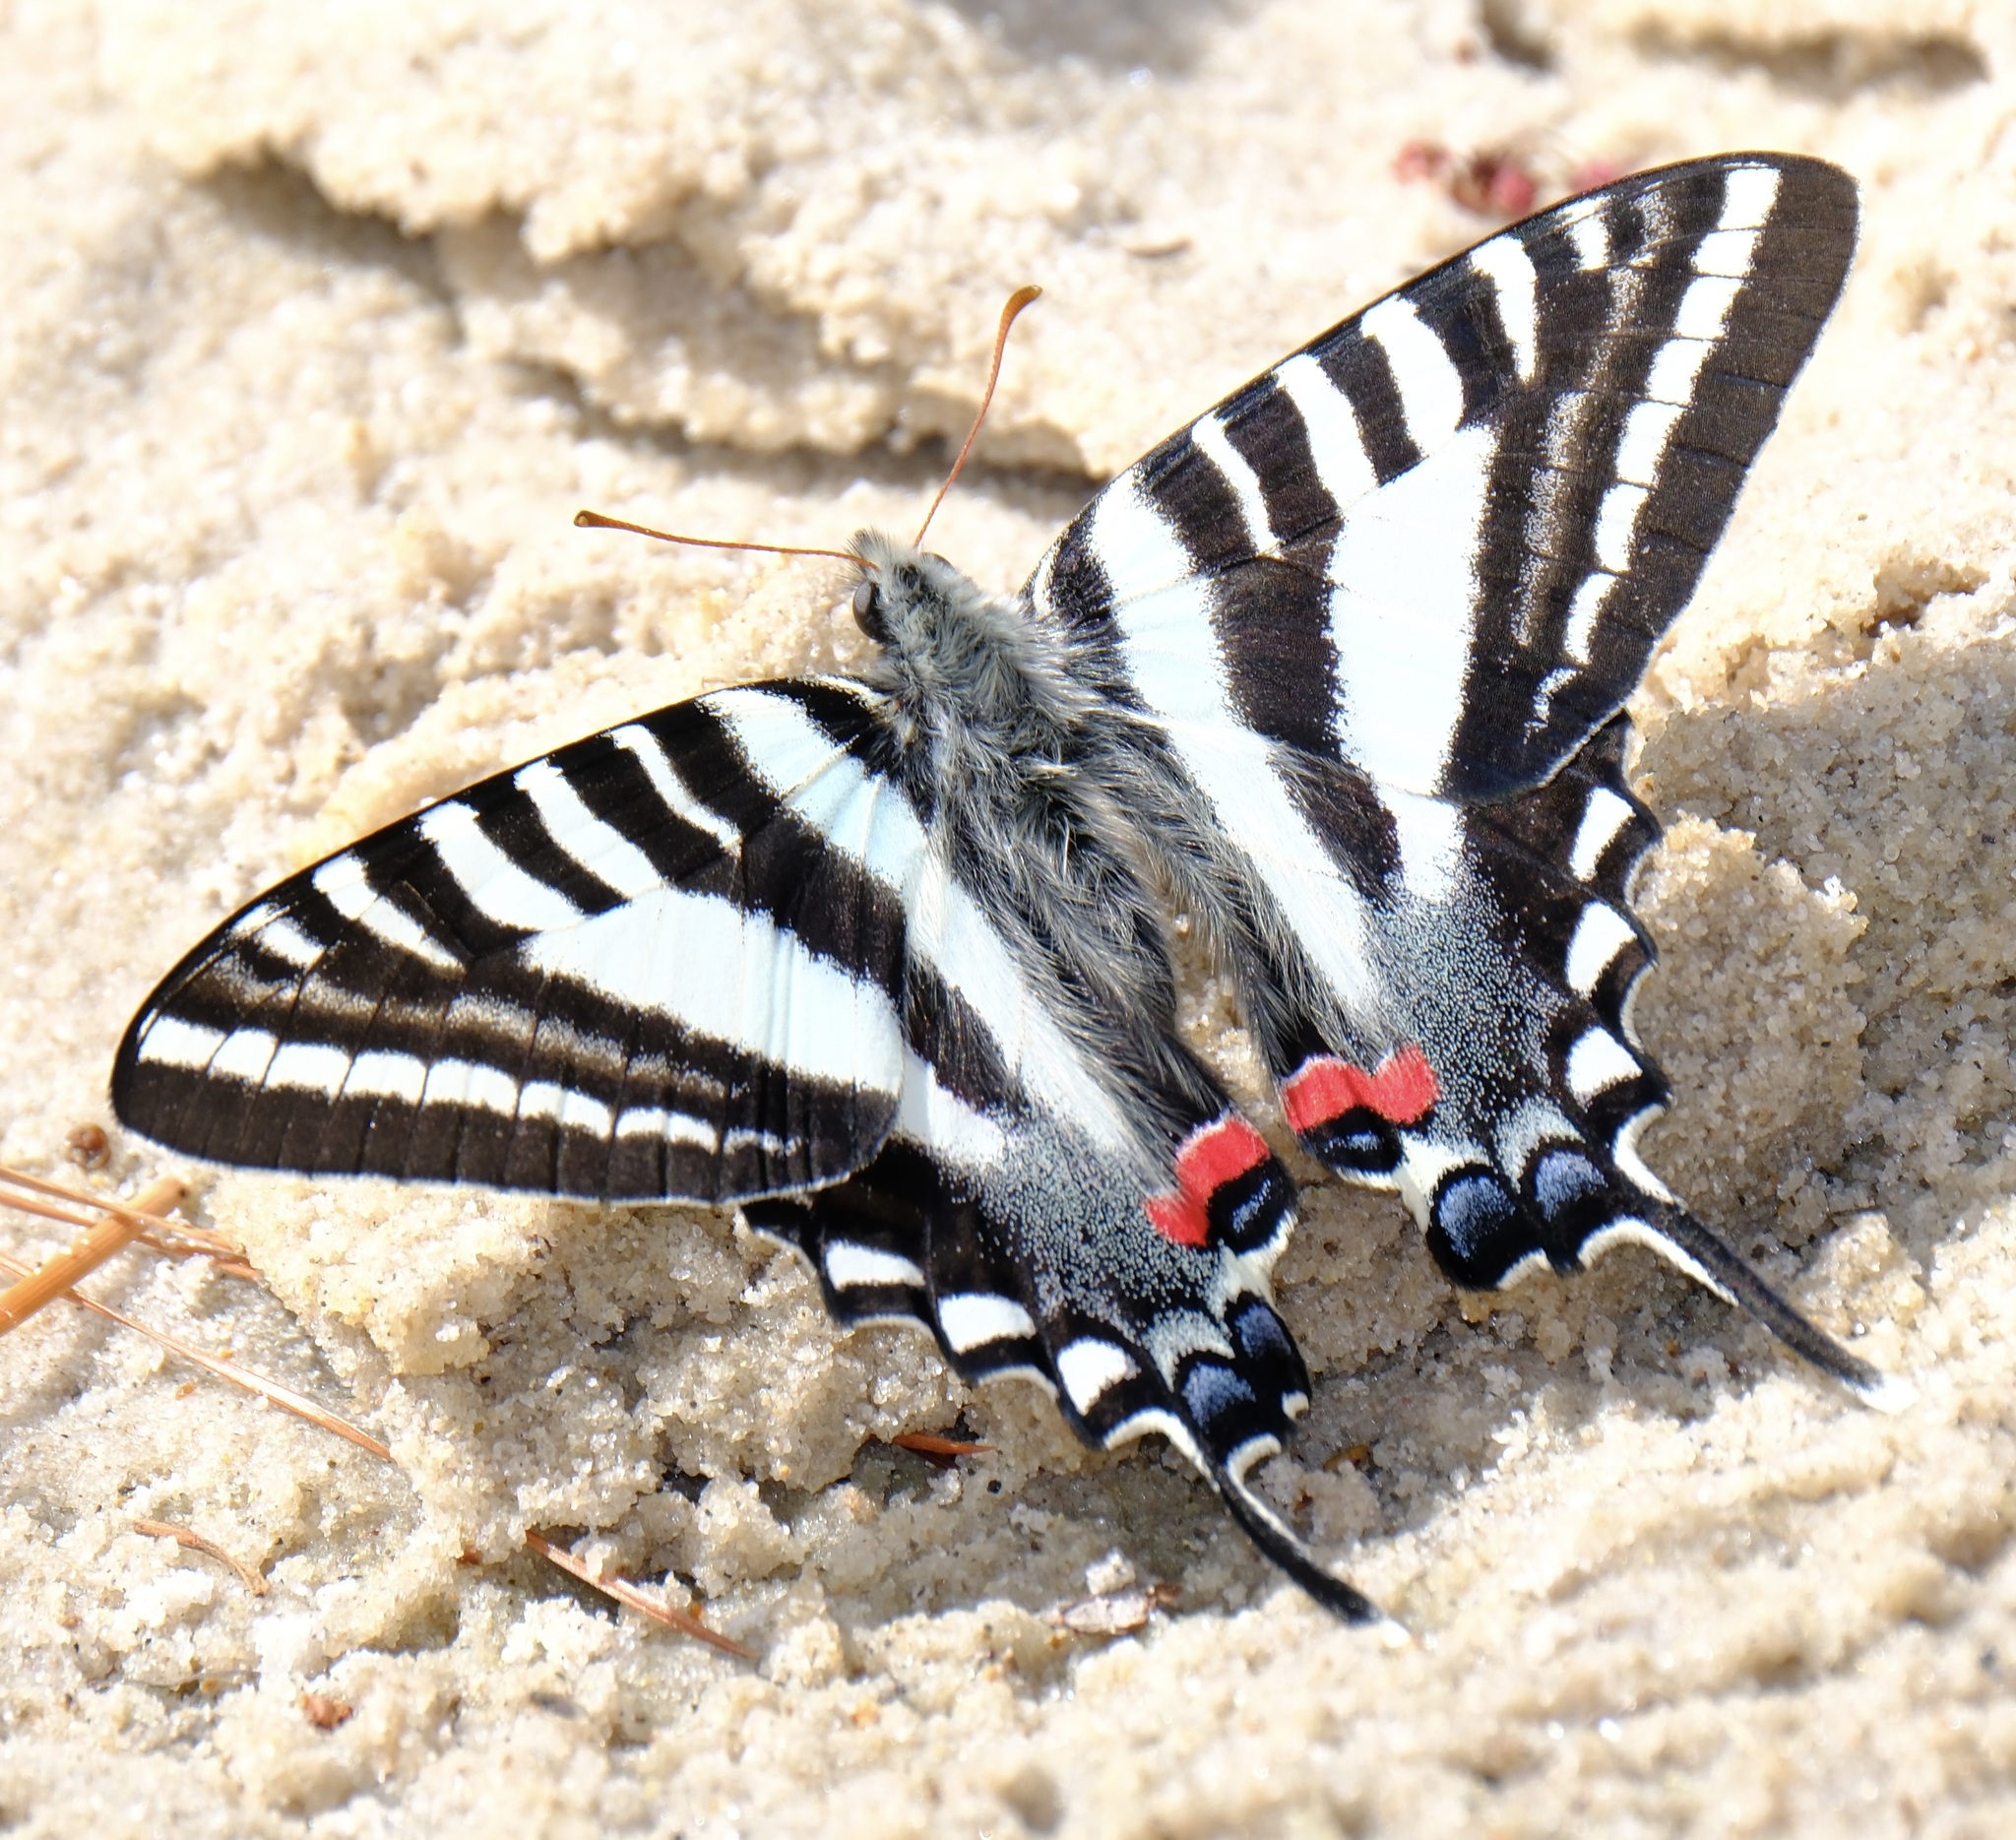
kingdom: Animalia
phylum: Arthropoda
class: Insecta
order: Lepidoptera
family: Papilionidae
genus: Protographium
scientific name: Protographium marcellus
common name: Zebra swallowtail
